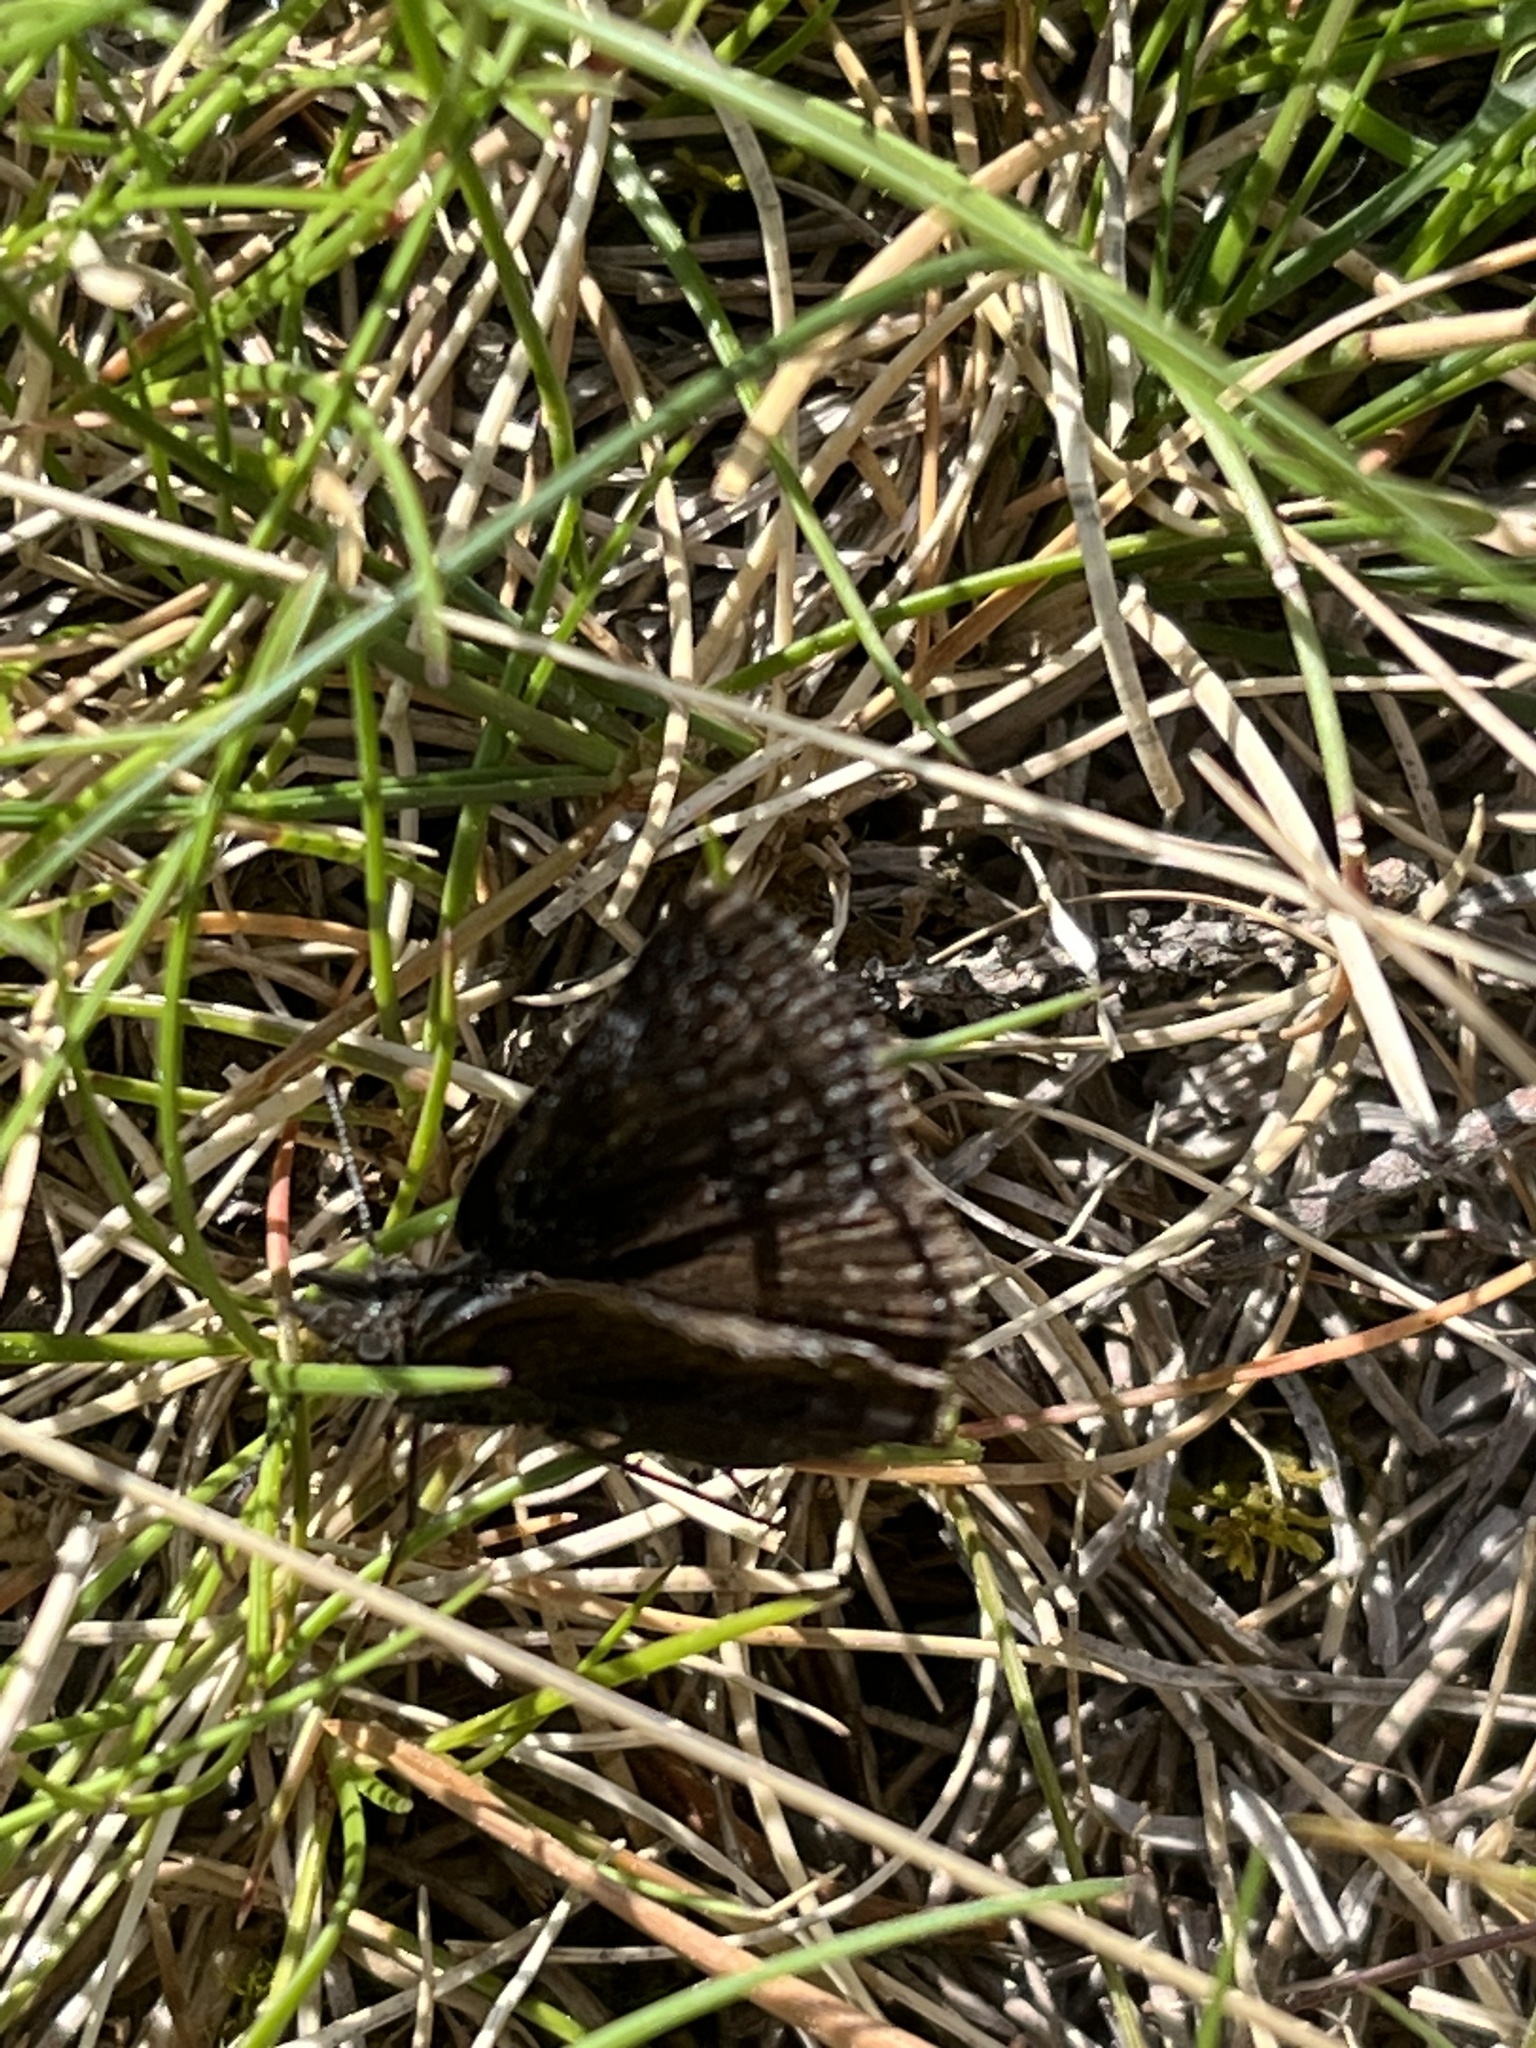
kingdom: Animalia
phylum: Arthropoda
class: Insecta
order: Lepidoptera
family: Hesperiidae
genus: Erynnis
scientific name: Erynnis persius
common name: Persius duskywing
